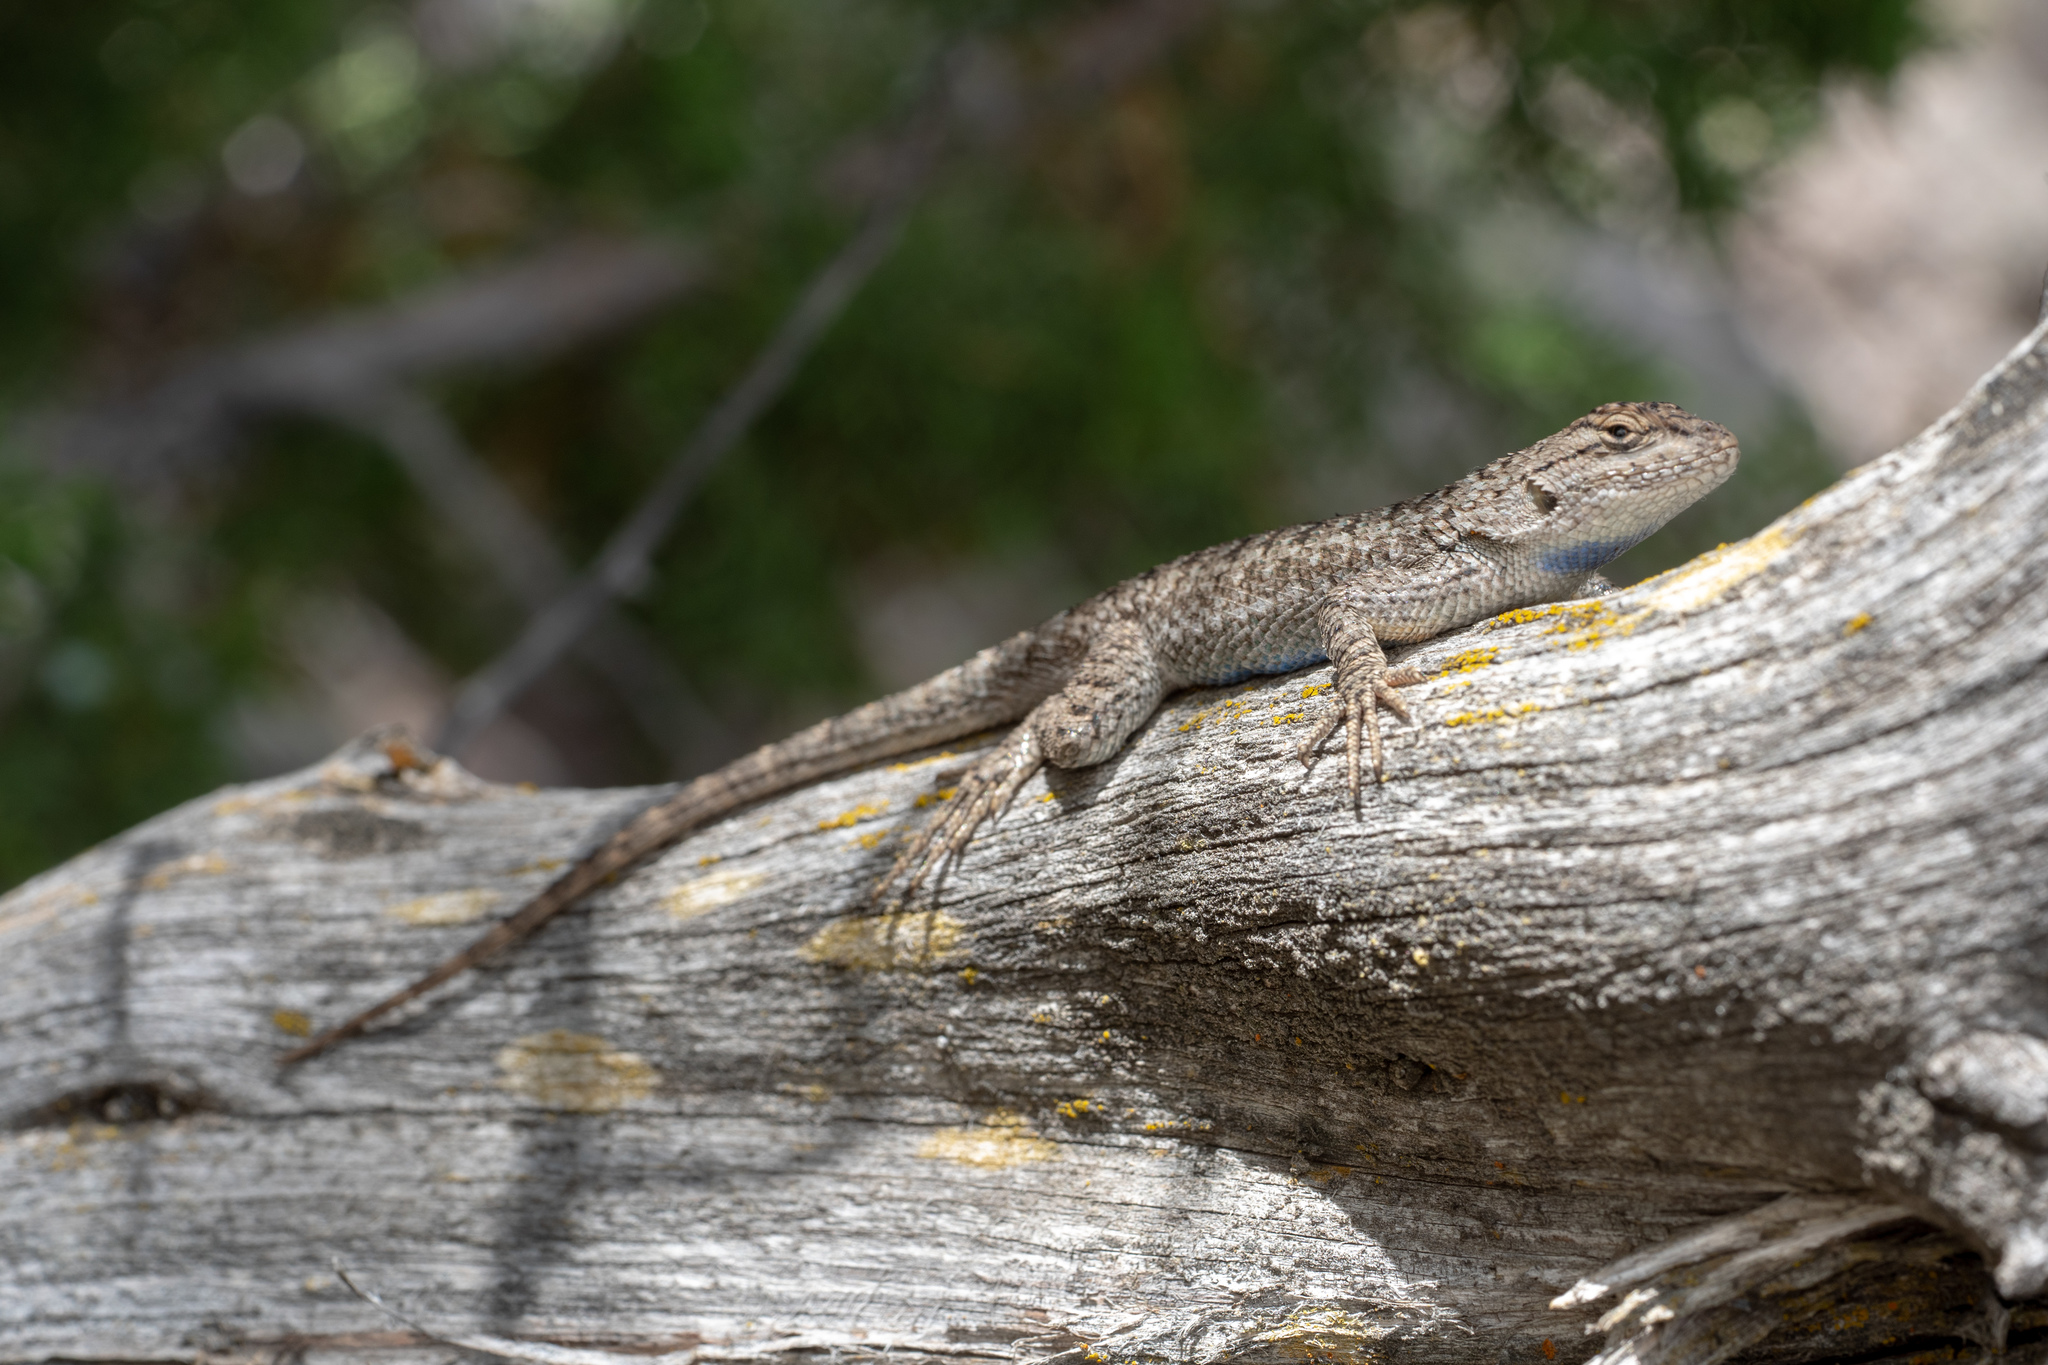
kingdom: Animalia
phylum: Chordata
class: Squamata
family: Phrynosomatidae
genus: Sceloporus
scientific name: Sceloporus occidentalis
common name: Western fence lizard
